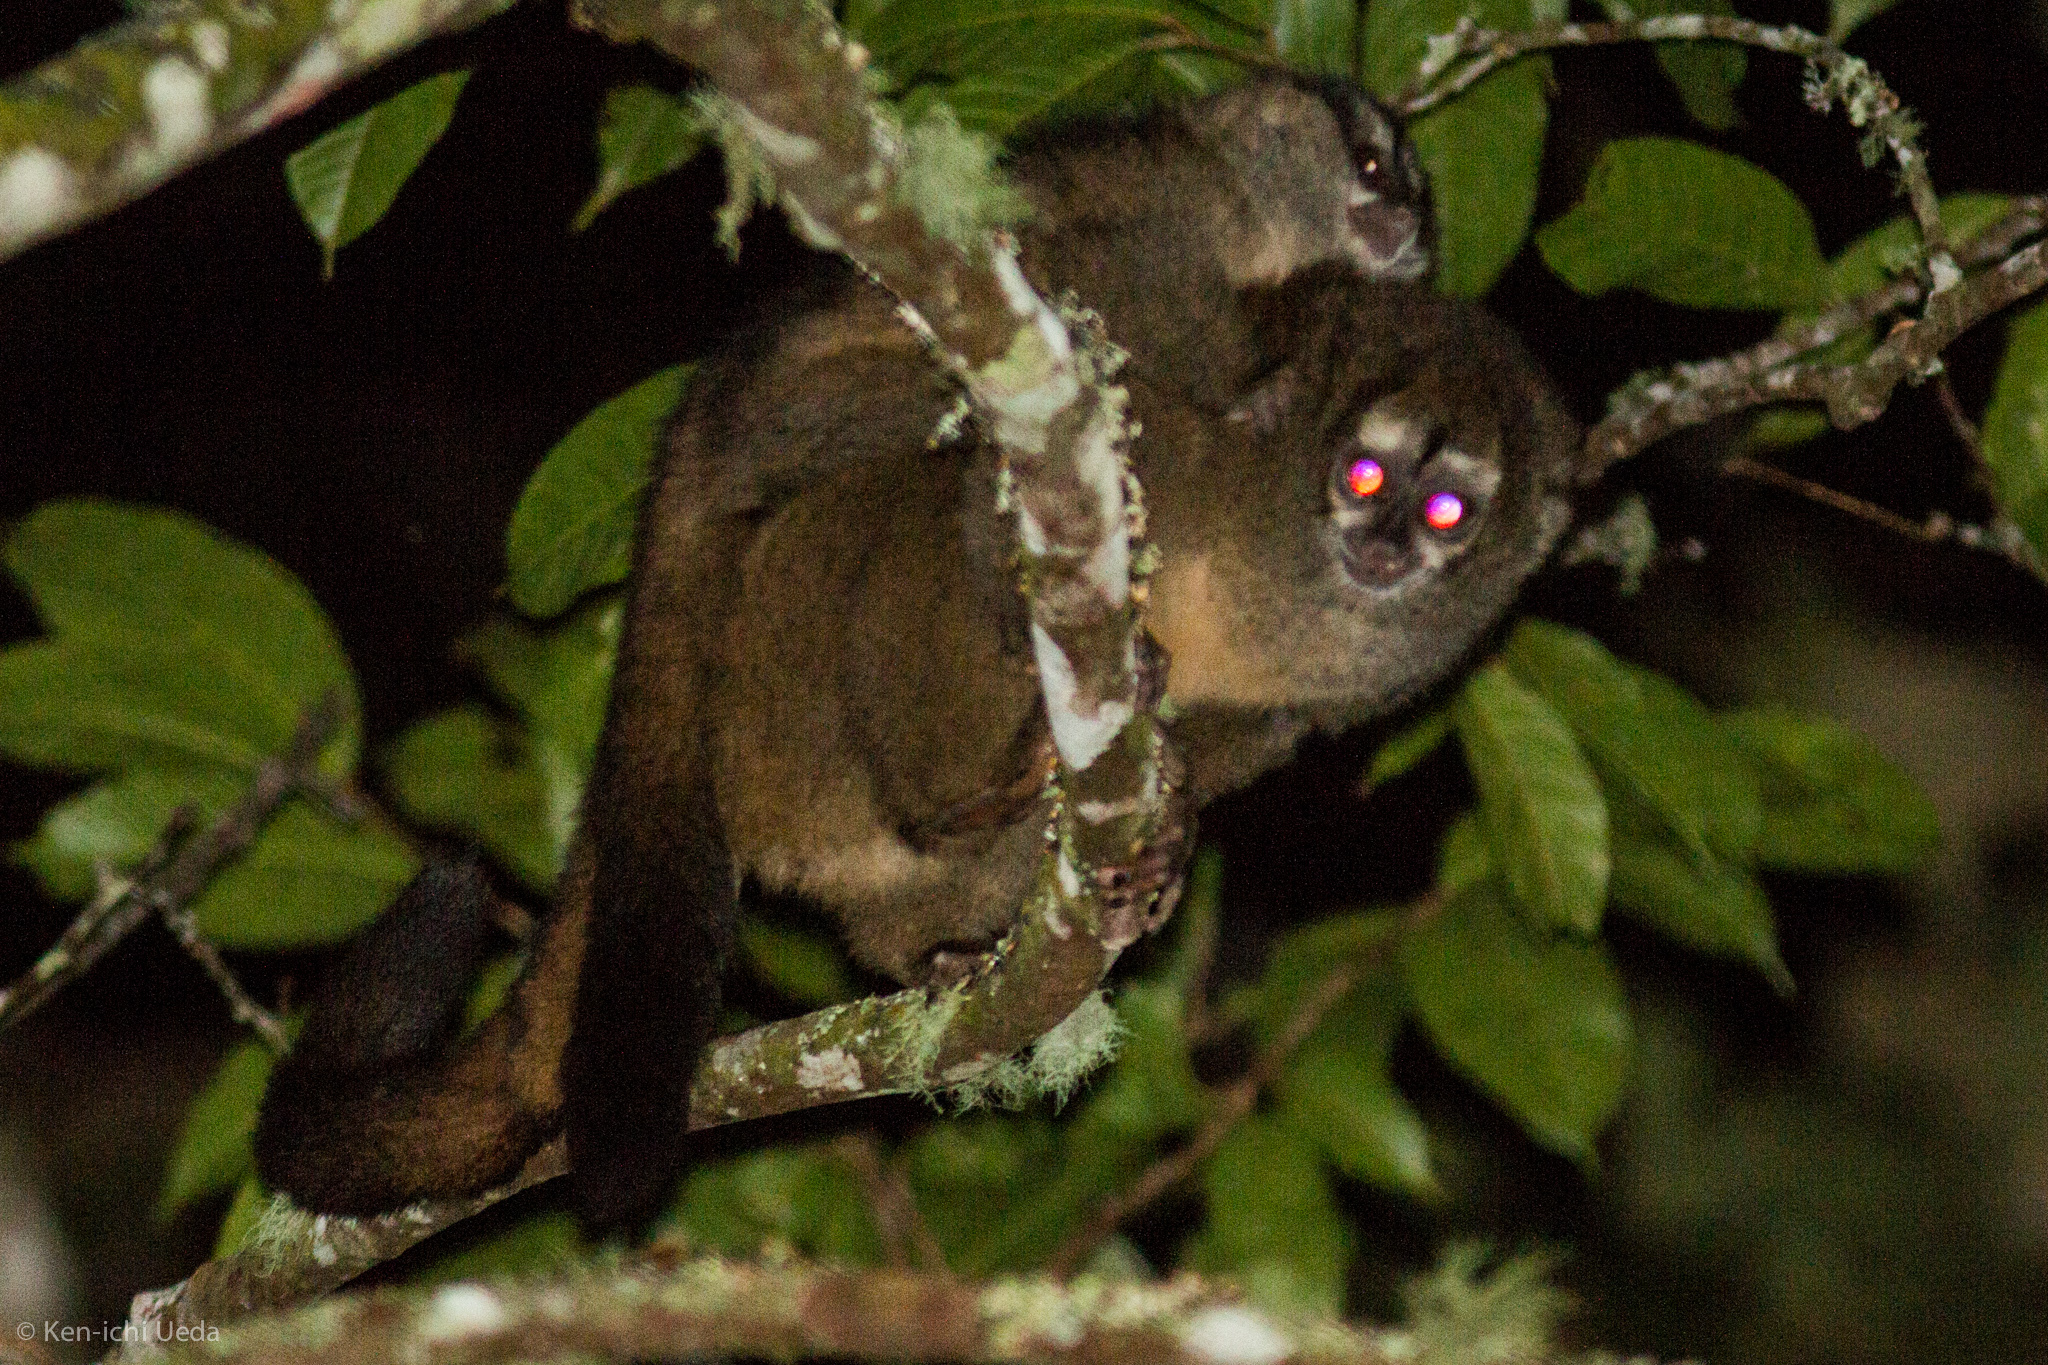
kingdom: Animalia
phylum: Chordata
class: Mammalia
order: Primates
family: Aotidae
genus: Aotus
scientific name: Aotus lemurinus
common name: Gray-bellied night monkey
